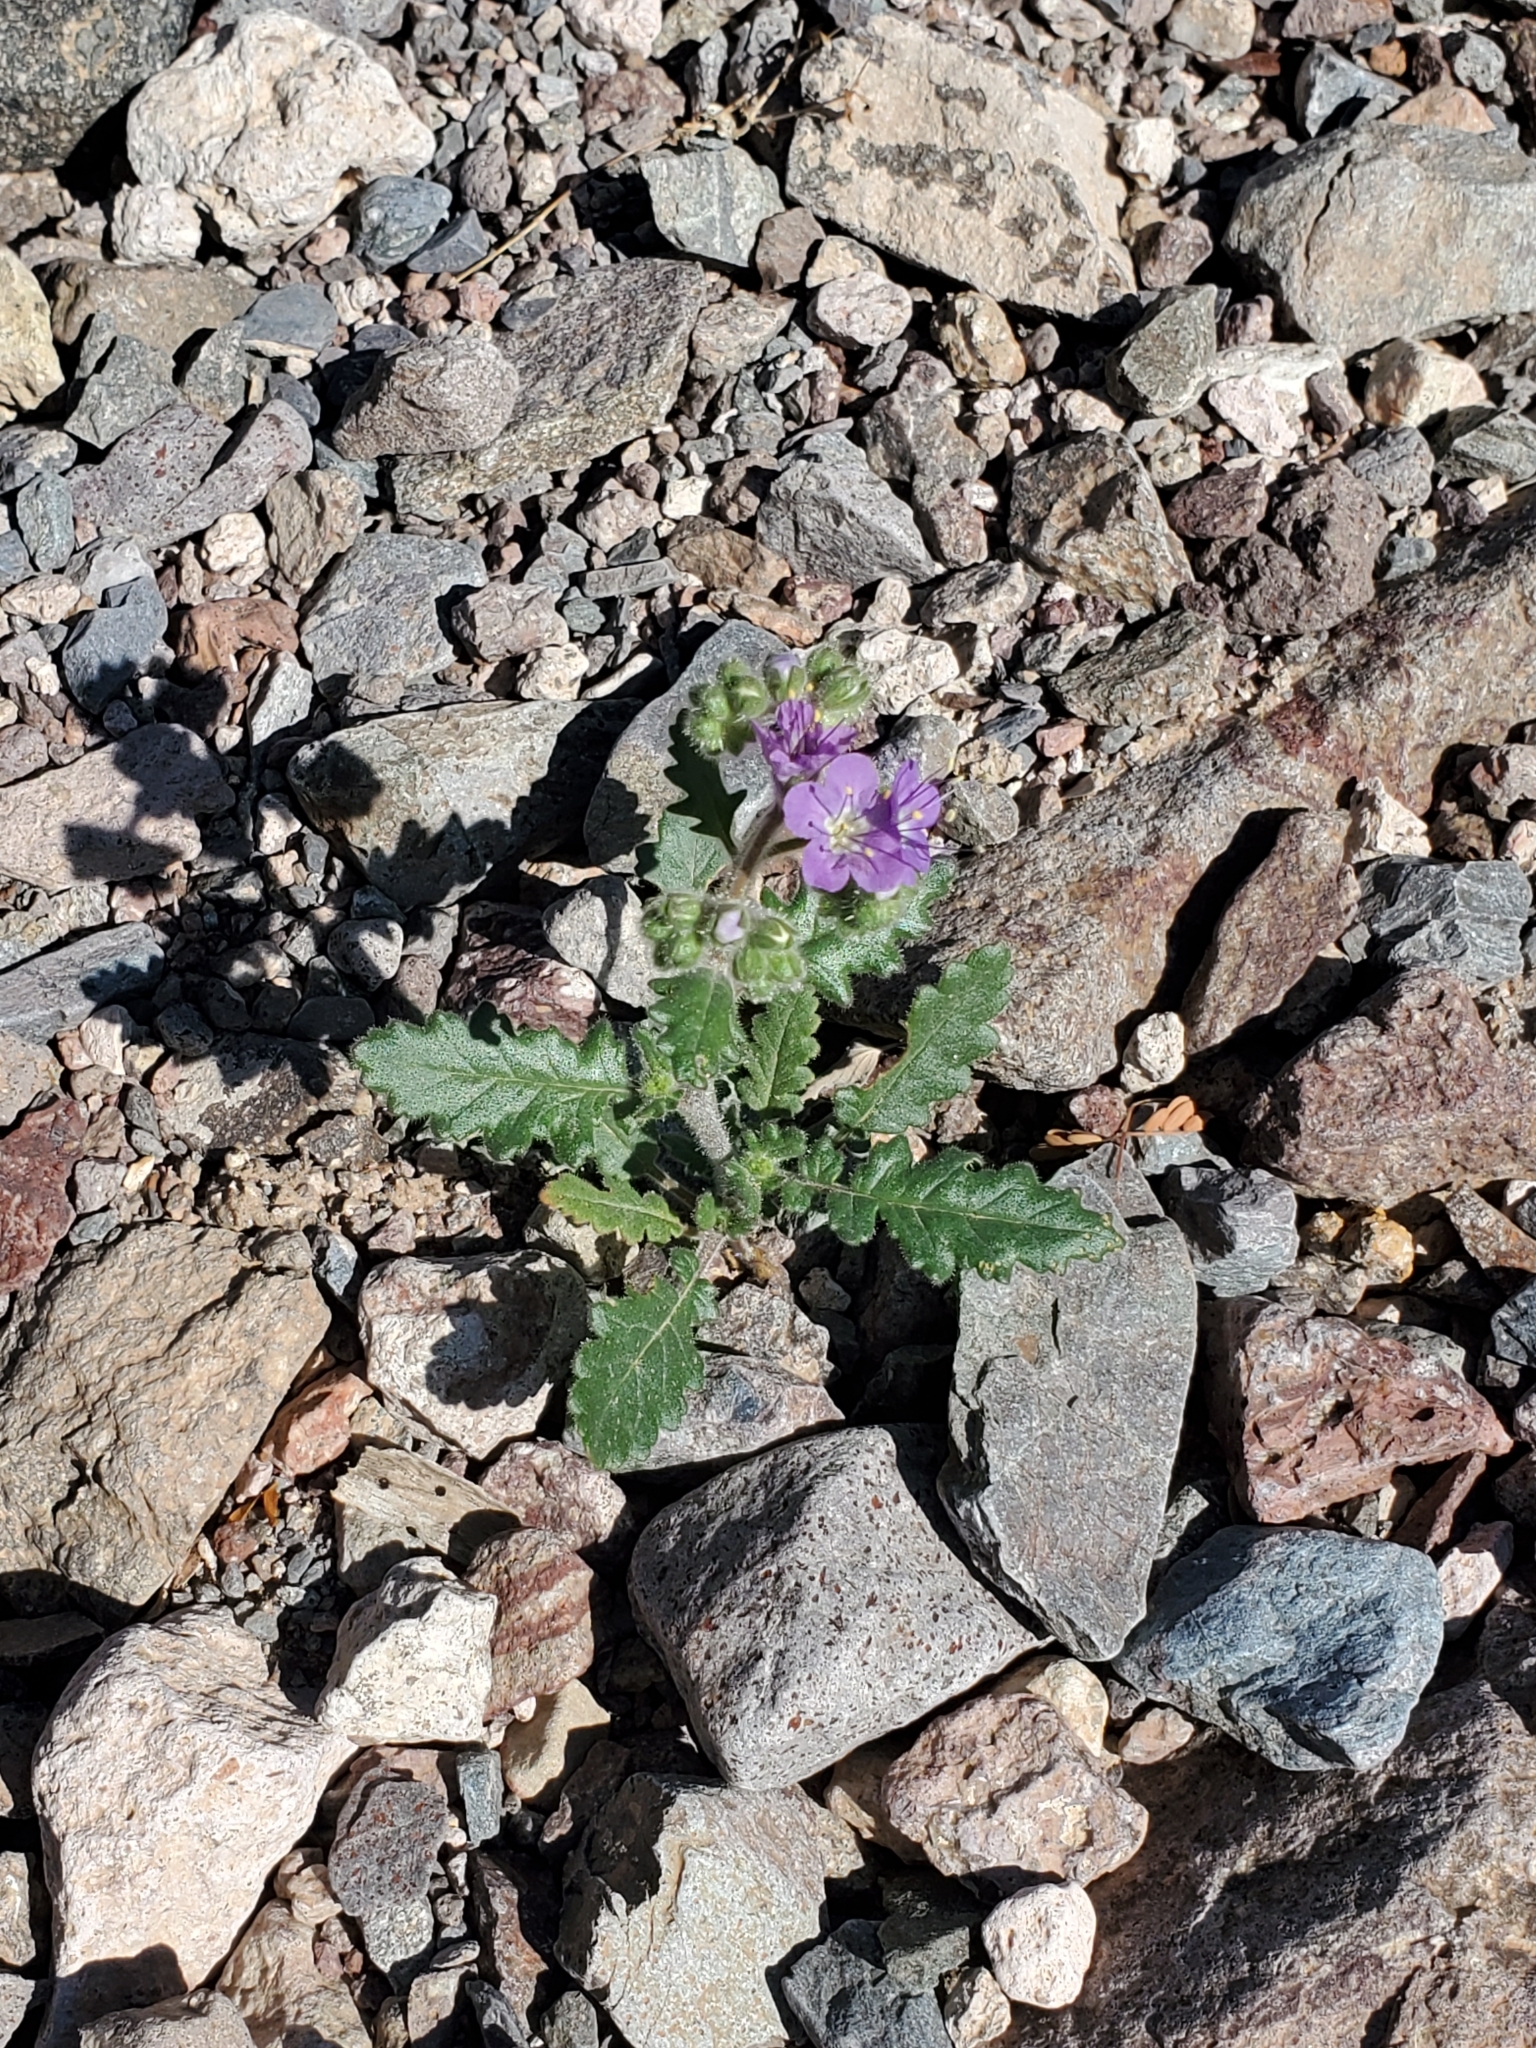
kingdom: Plantae
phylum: Tracheophyta
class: Magnoliopsida
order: Boraginales
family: Hydrophyllaceae
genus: Phacelia
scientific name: Phacelia crenulata
